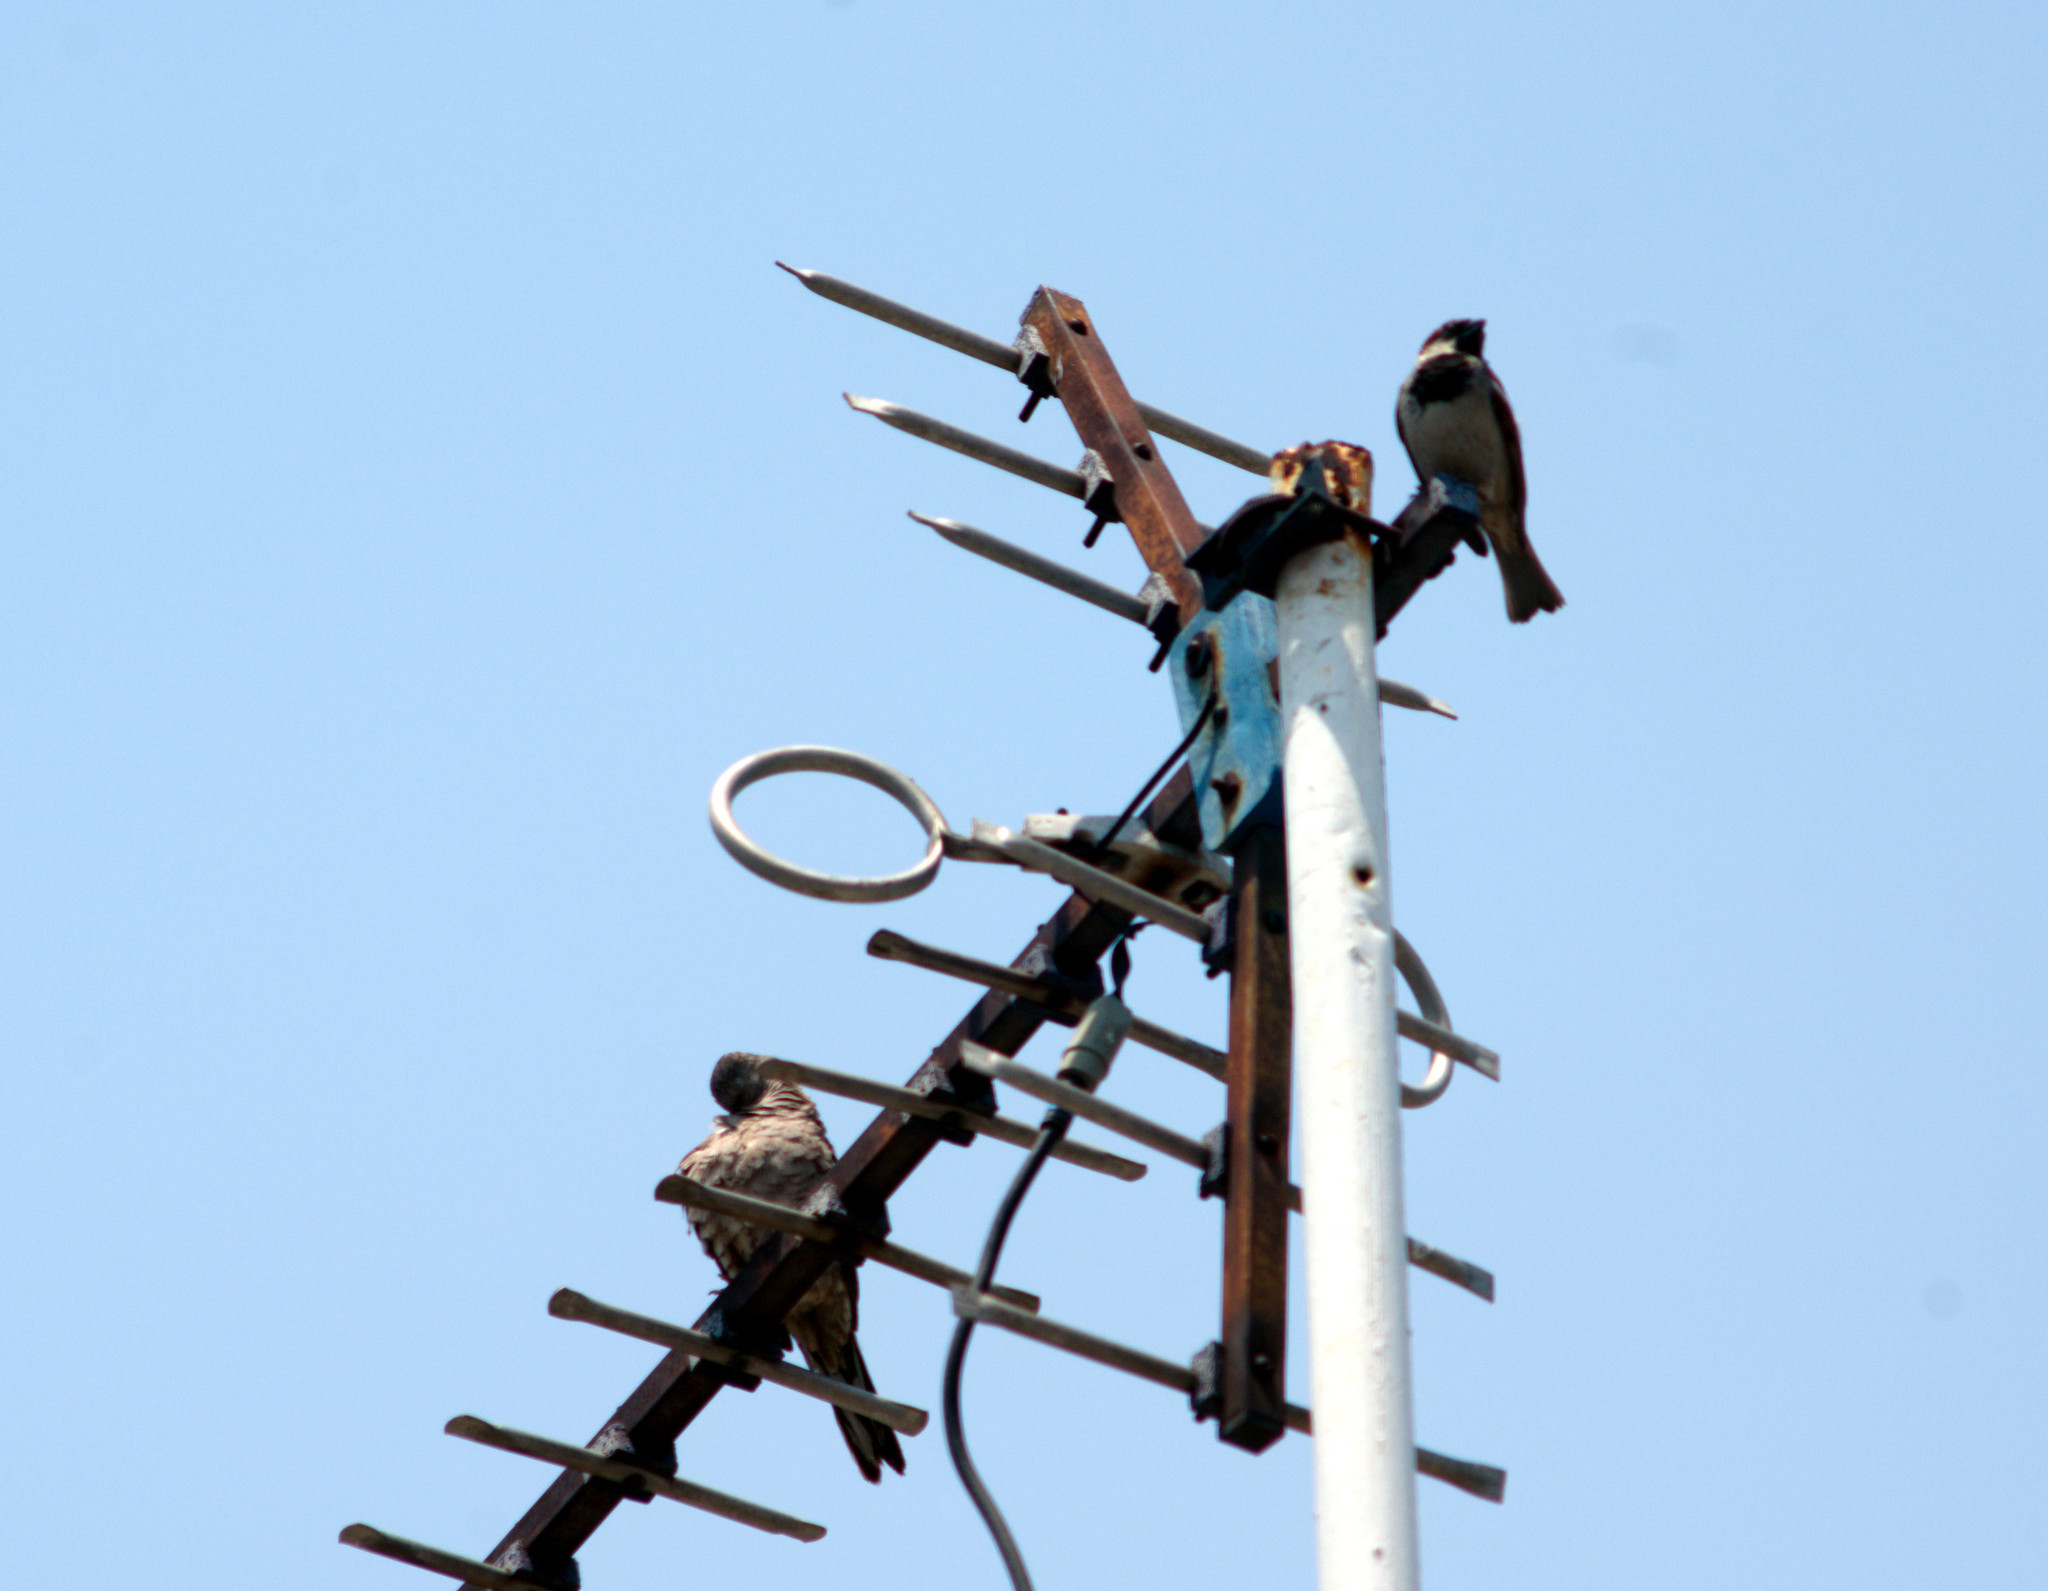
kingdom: Animalia
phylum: Chordata
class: Aves
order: Passeriformes
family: Passeridae
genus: Passer
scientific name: Passer domesticus
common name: House sparrow
